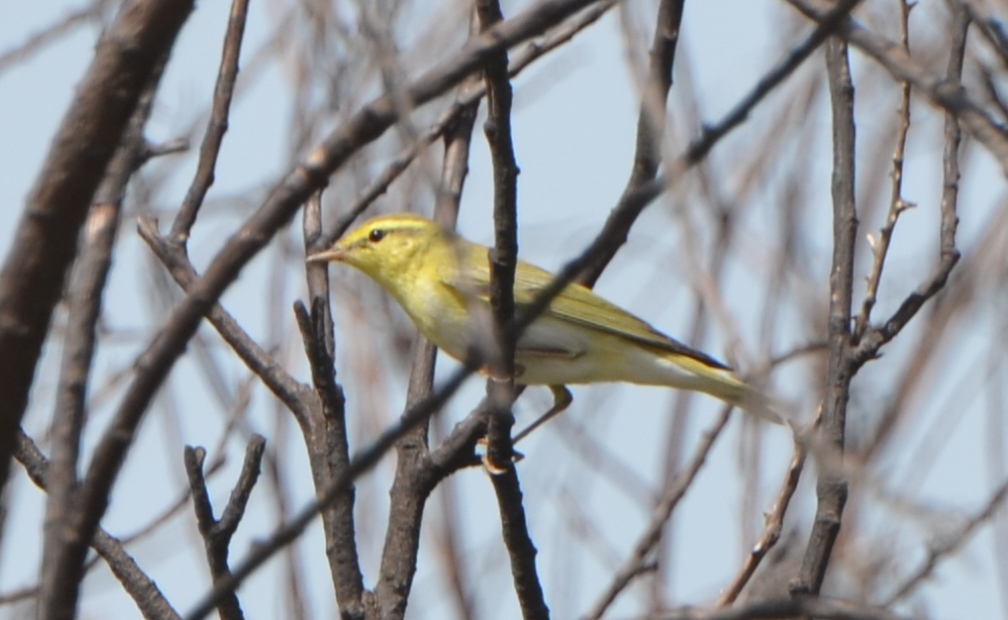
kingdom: Animalia
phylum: Chordata
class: Aves
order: Passeriformes
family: Phylloscopidae
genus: Phylloscopus
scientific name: Phylloscopus sibillatrix
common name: Wood warbler
